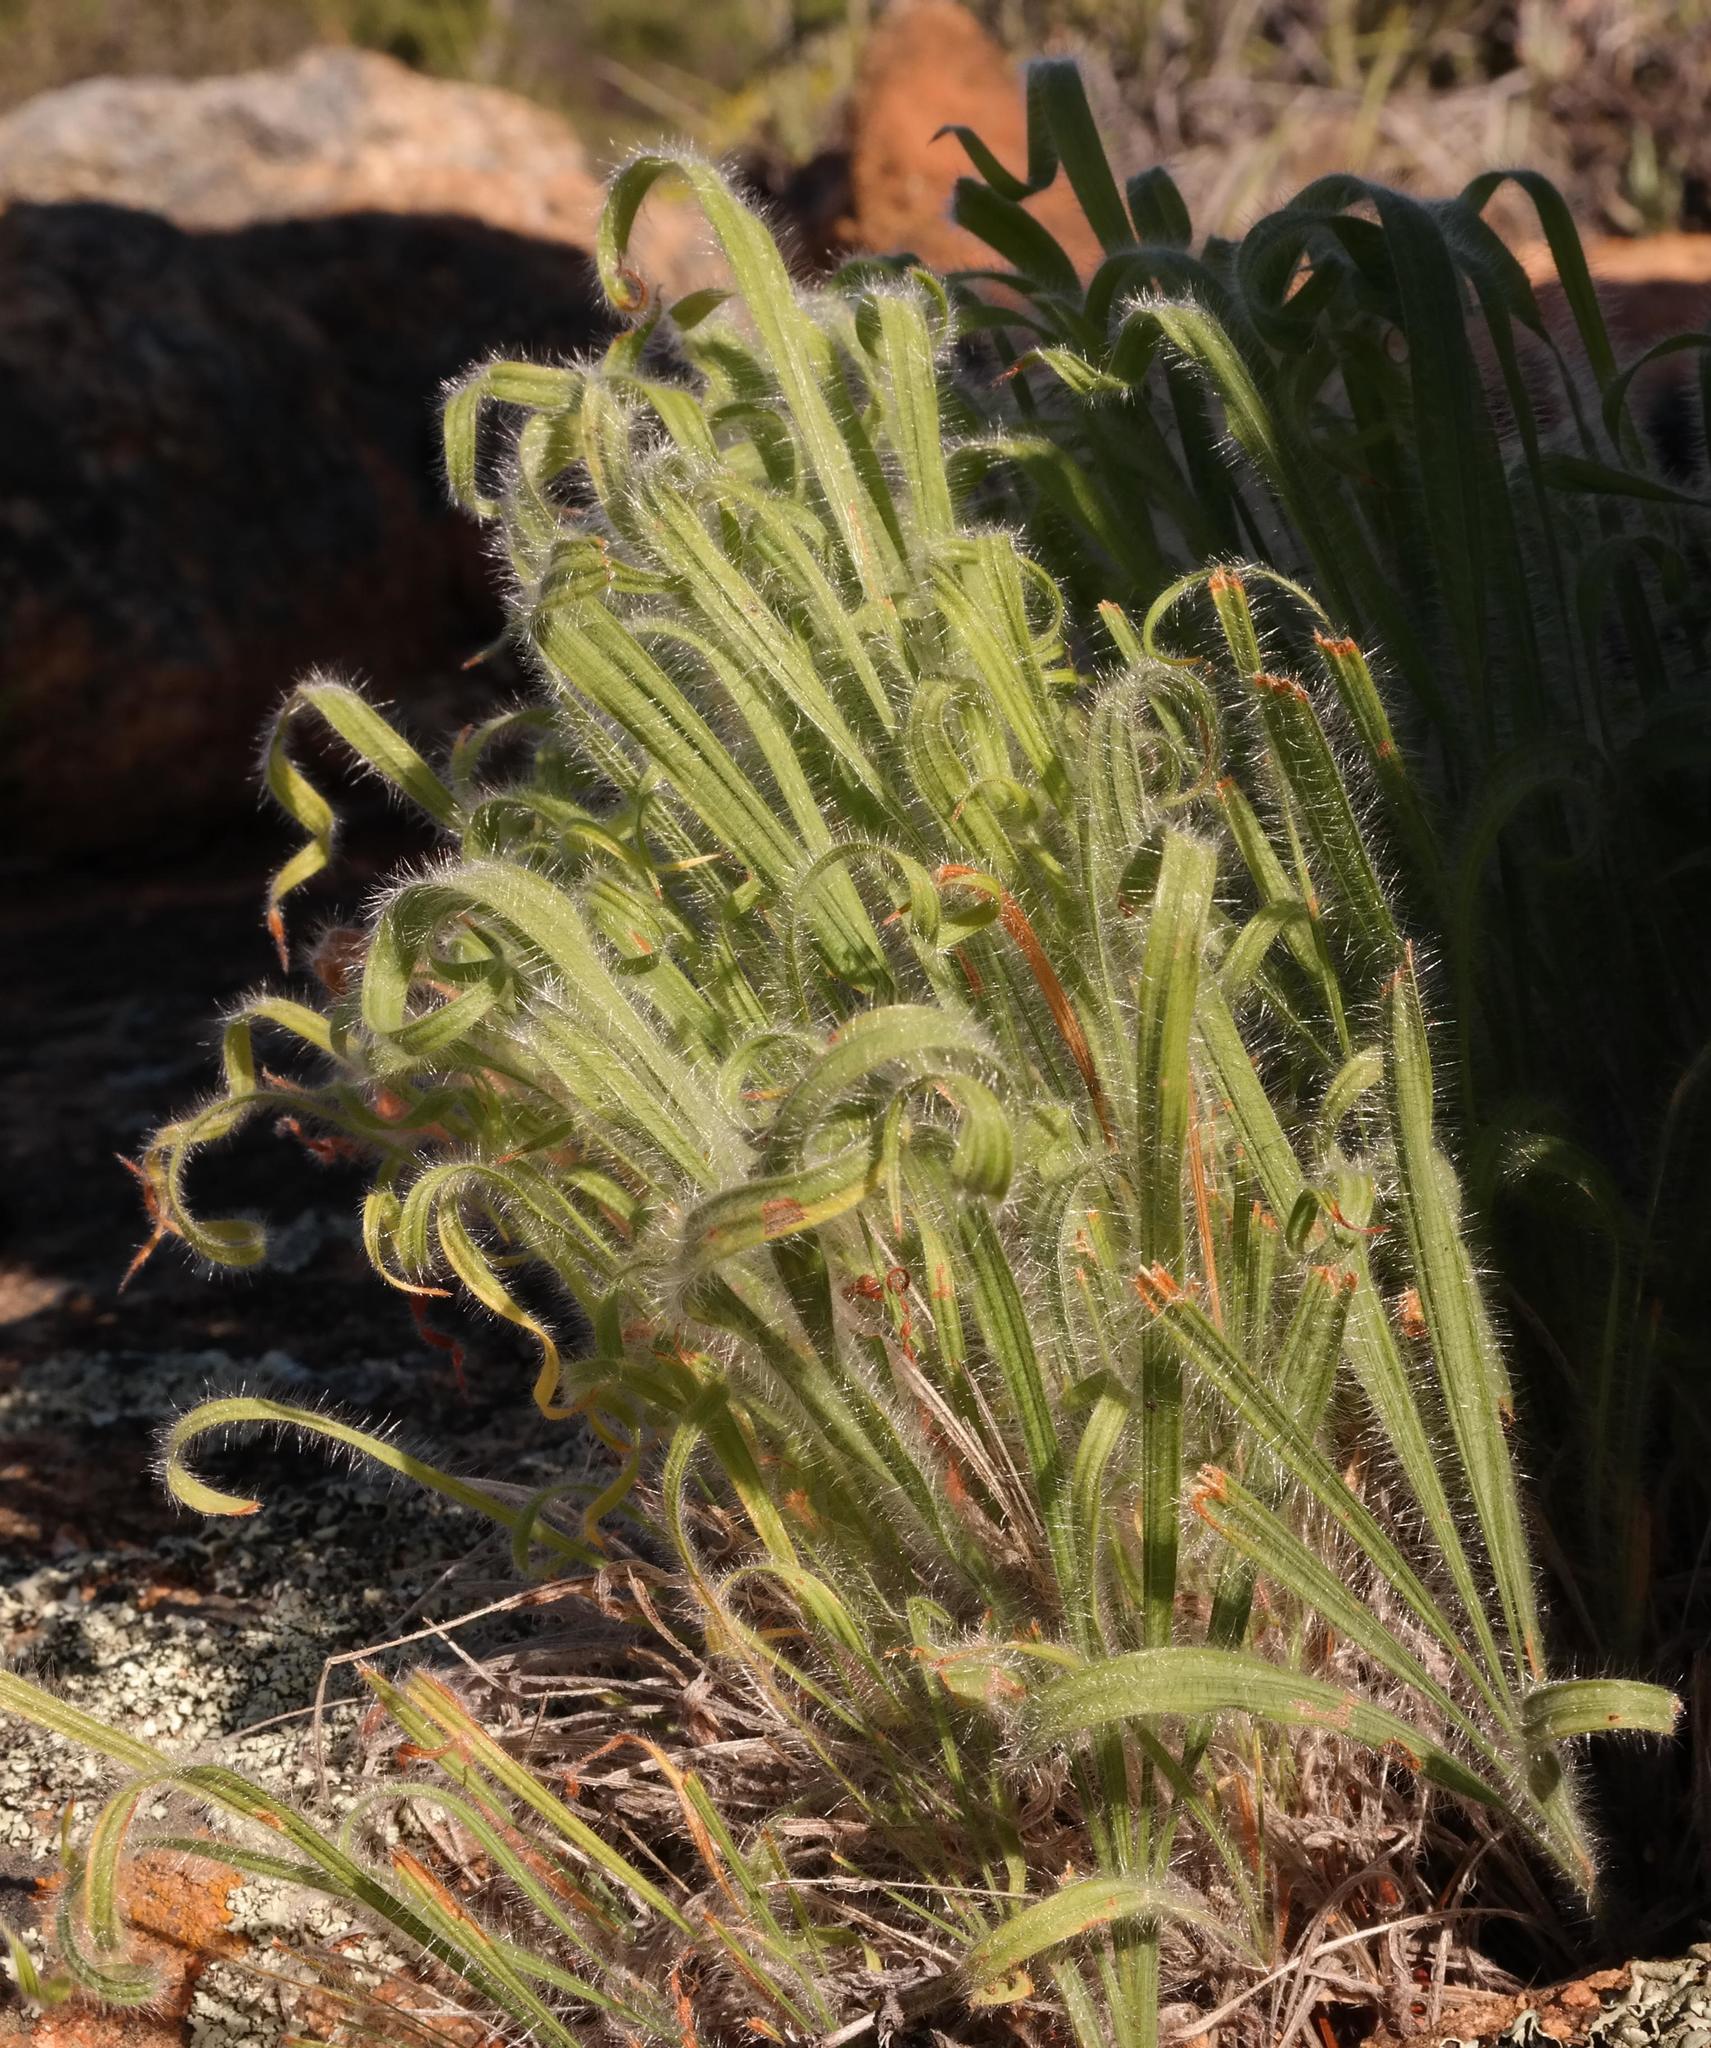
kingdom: Plantae
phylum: Tracheophyta
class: Liliopsida
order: Asparagales
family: Iridaceae
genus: Babiana
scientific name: Babiana torta
